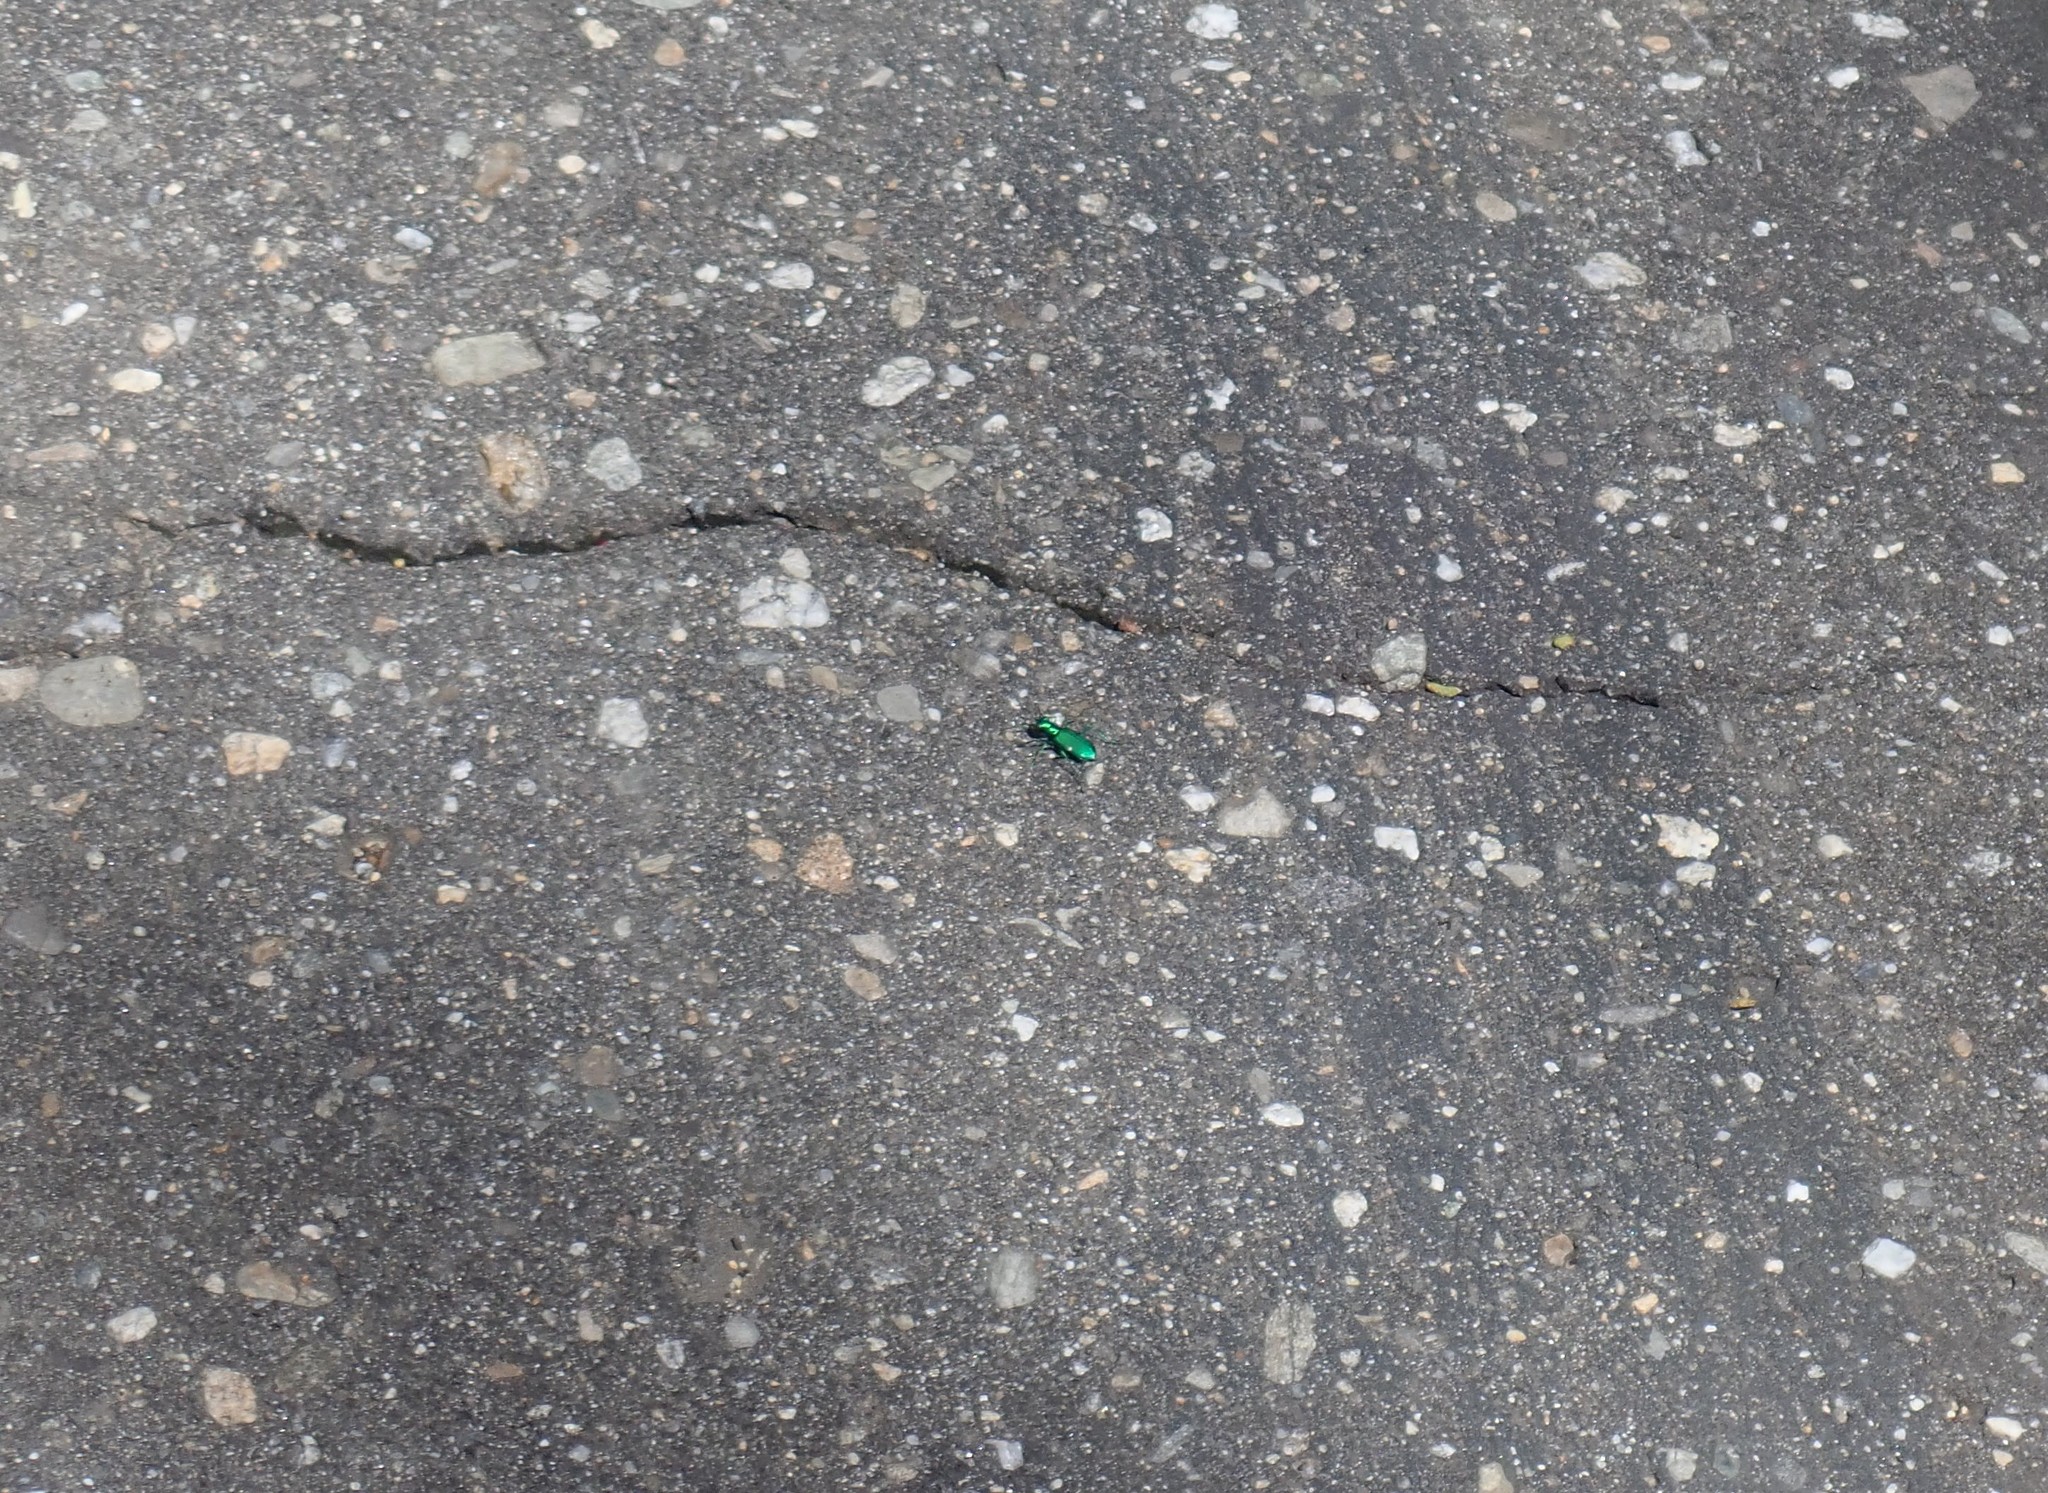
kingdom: Animalia
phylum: Arthropoda
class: Insecta
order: Coleoptera
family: Carabidae
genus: Cicindela
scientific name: Cicindela sexguttata
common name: Six-spotted tiger beetle
